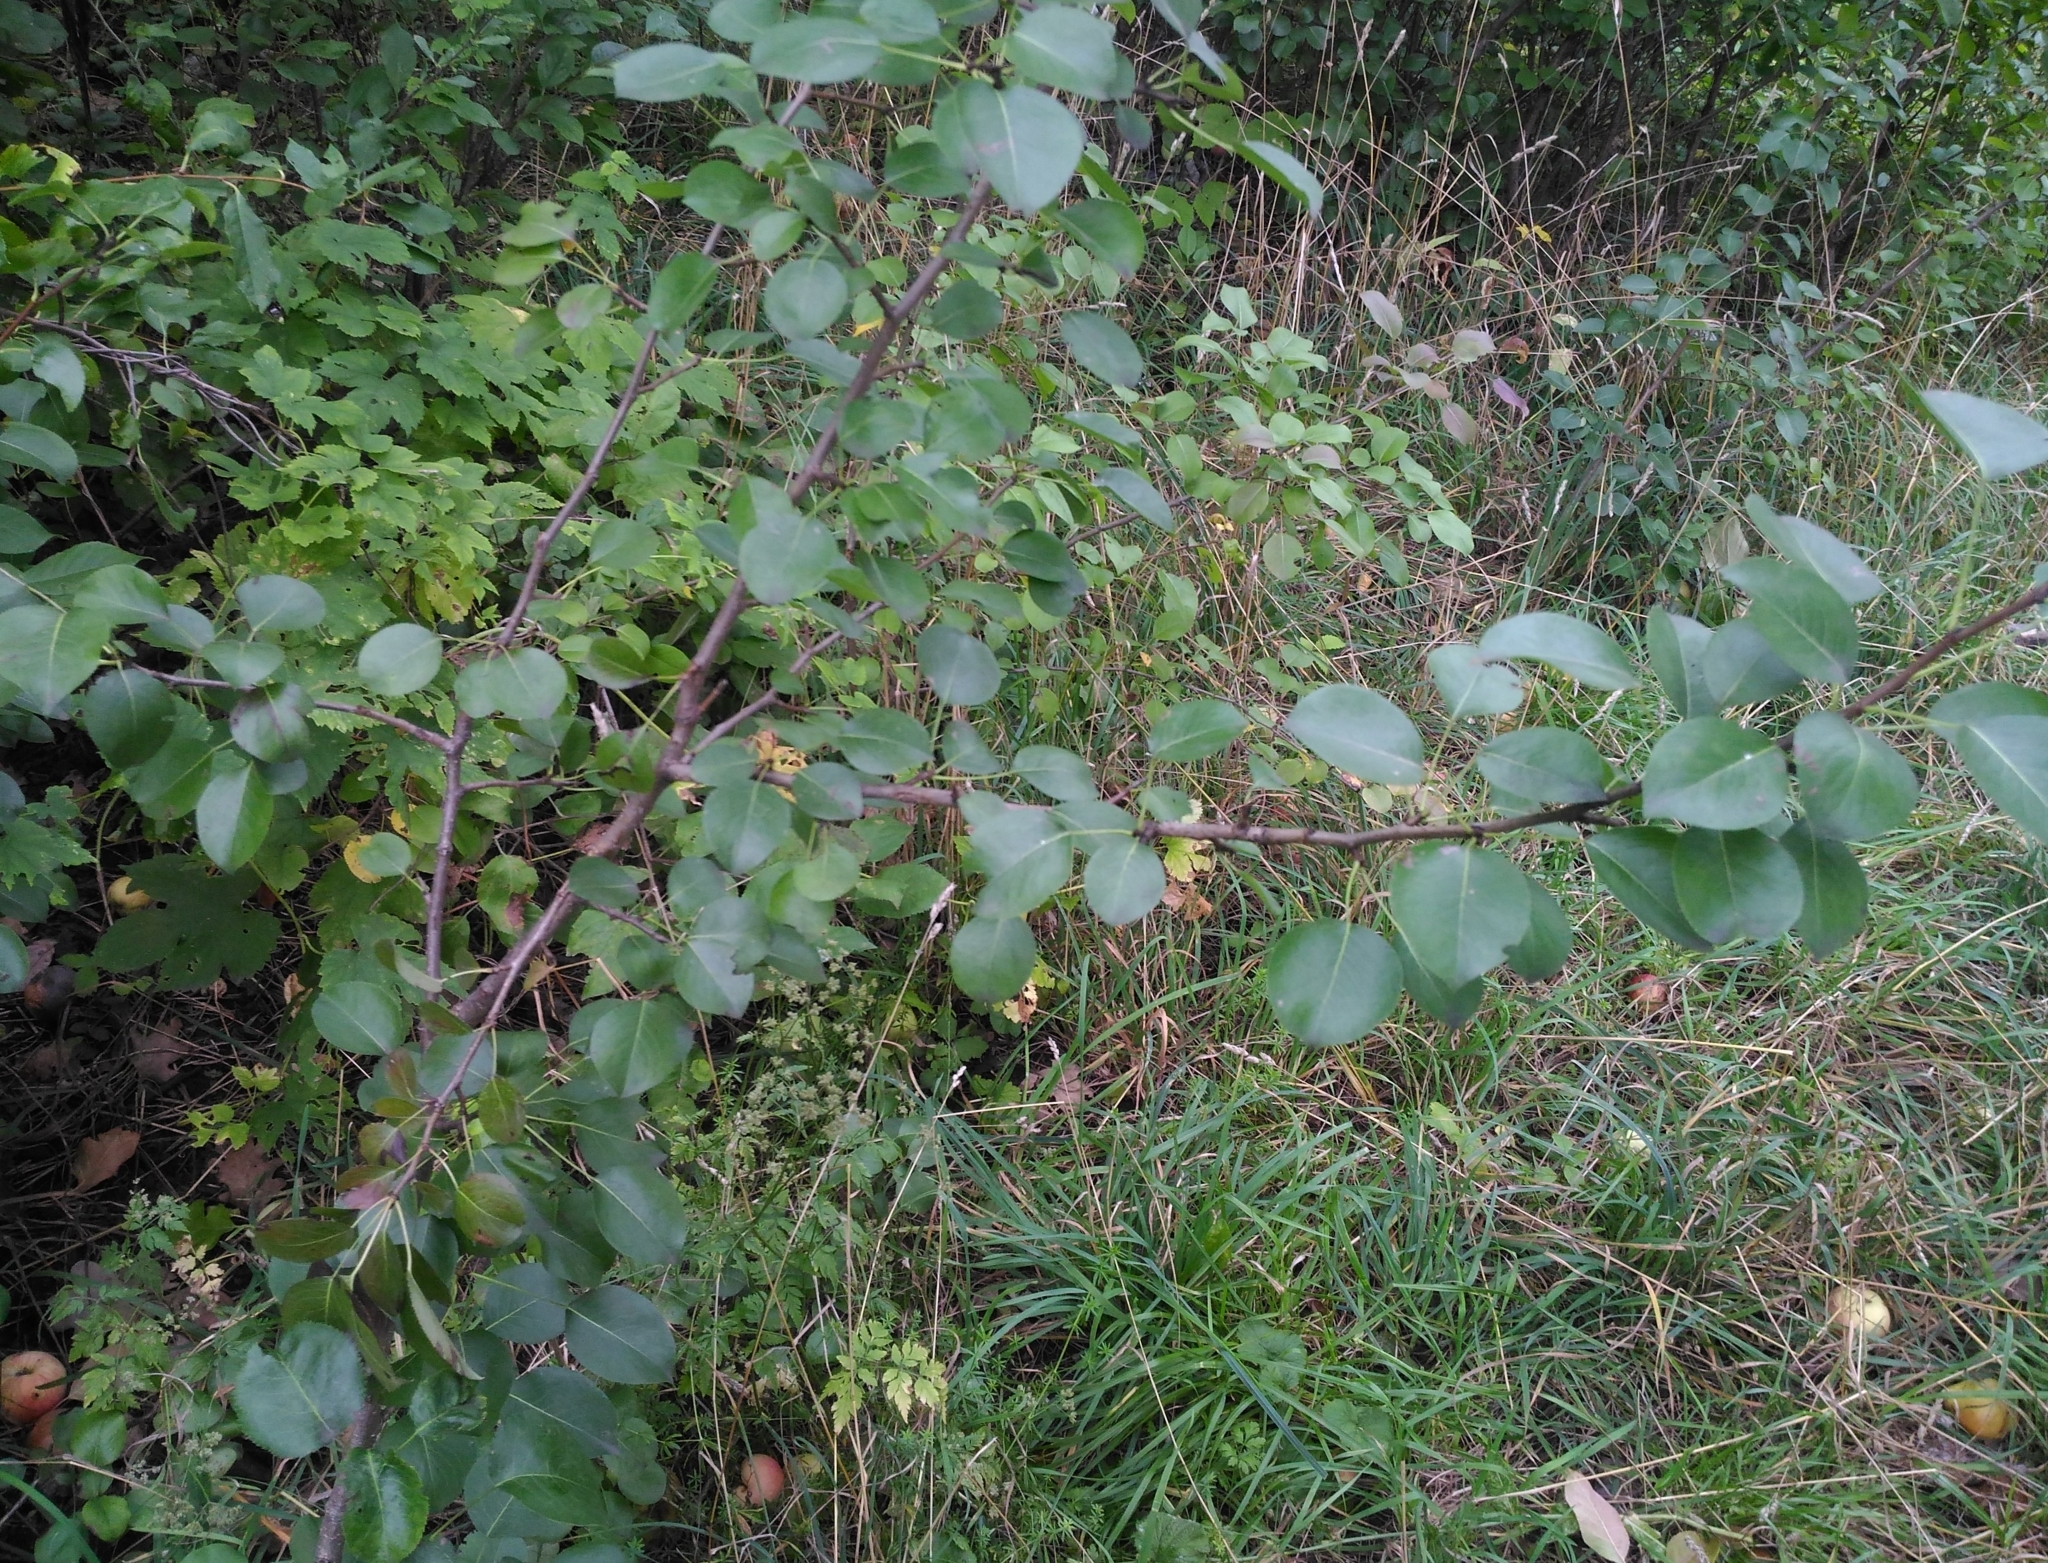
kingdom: Plantae
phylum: Tracheophyta
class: Magnoliopsida
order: Rosales
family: Rosaceae
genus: Pyrus
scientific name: Pyrus communis
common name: Pear
